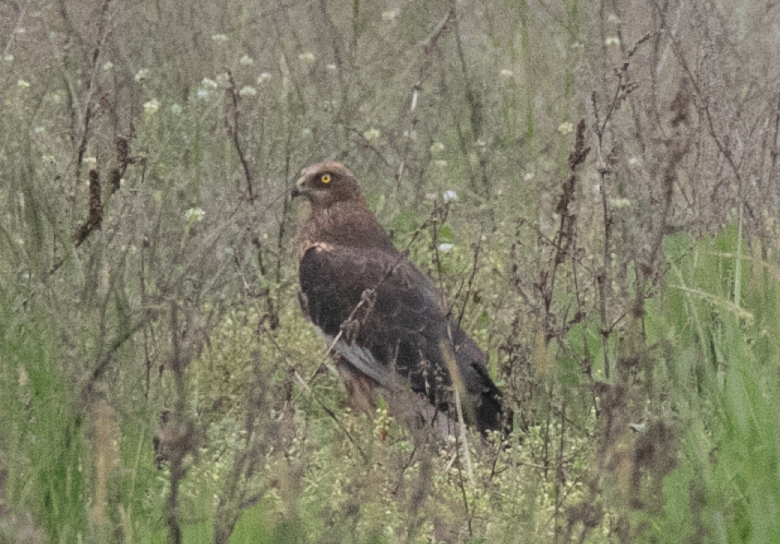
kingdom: Animalia
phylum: Chordata
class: Aves
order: Accipitriformes
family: Accipitridae
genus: Circus
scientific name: Circus aeruginosus
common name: Western marsh harrier
